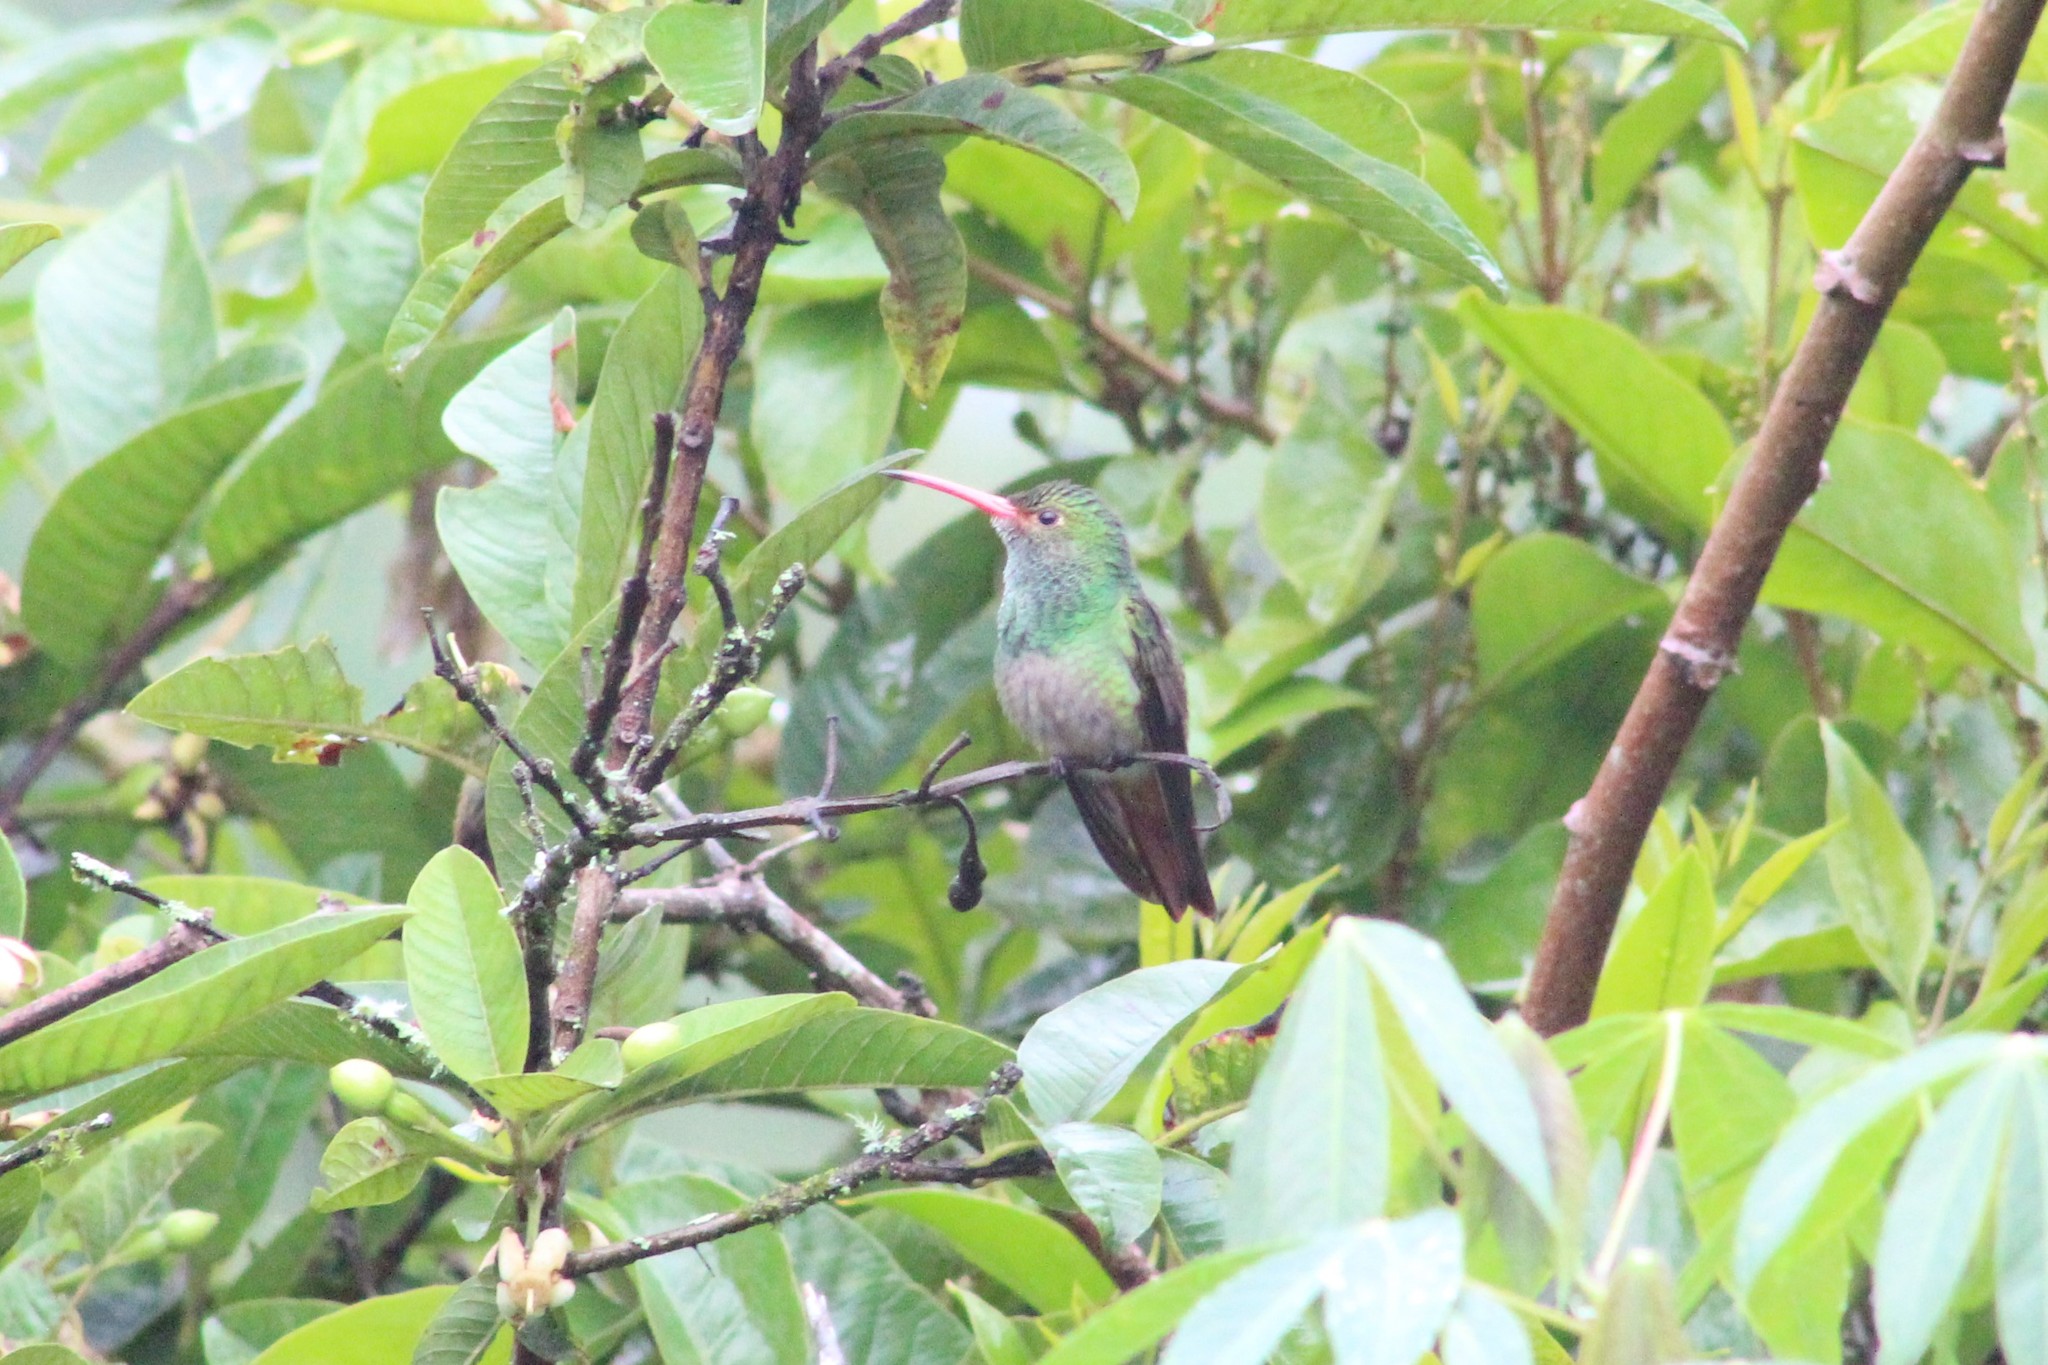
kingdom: Animalia
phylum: Chordata
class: Aves
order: Apodiformes
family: Trochilidae
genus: Amazilia
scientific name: Amazilia tzacatl
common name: Rufous-tailed hummingbird
